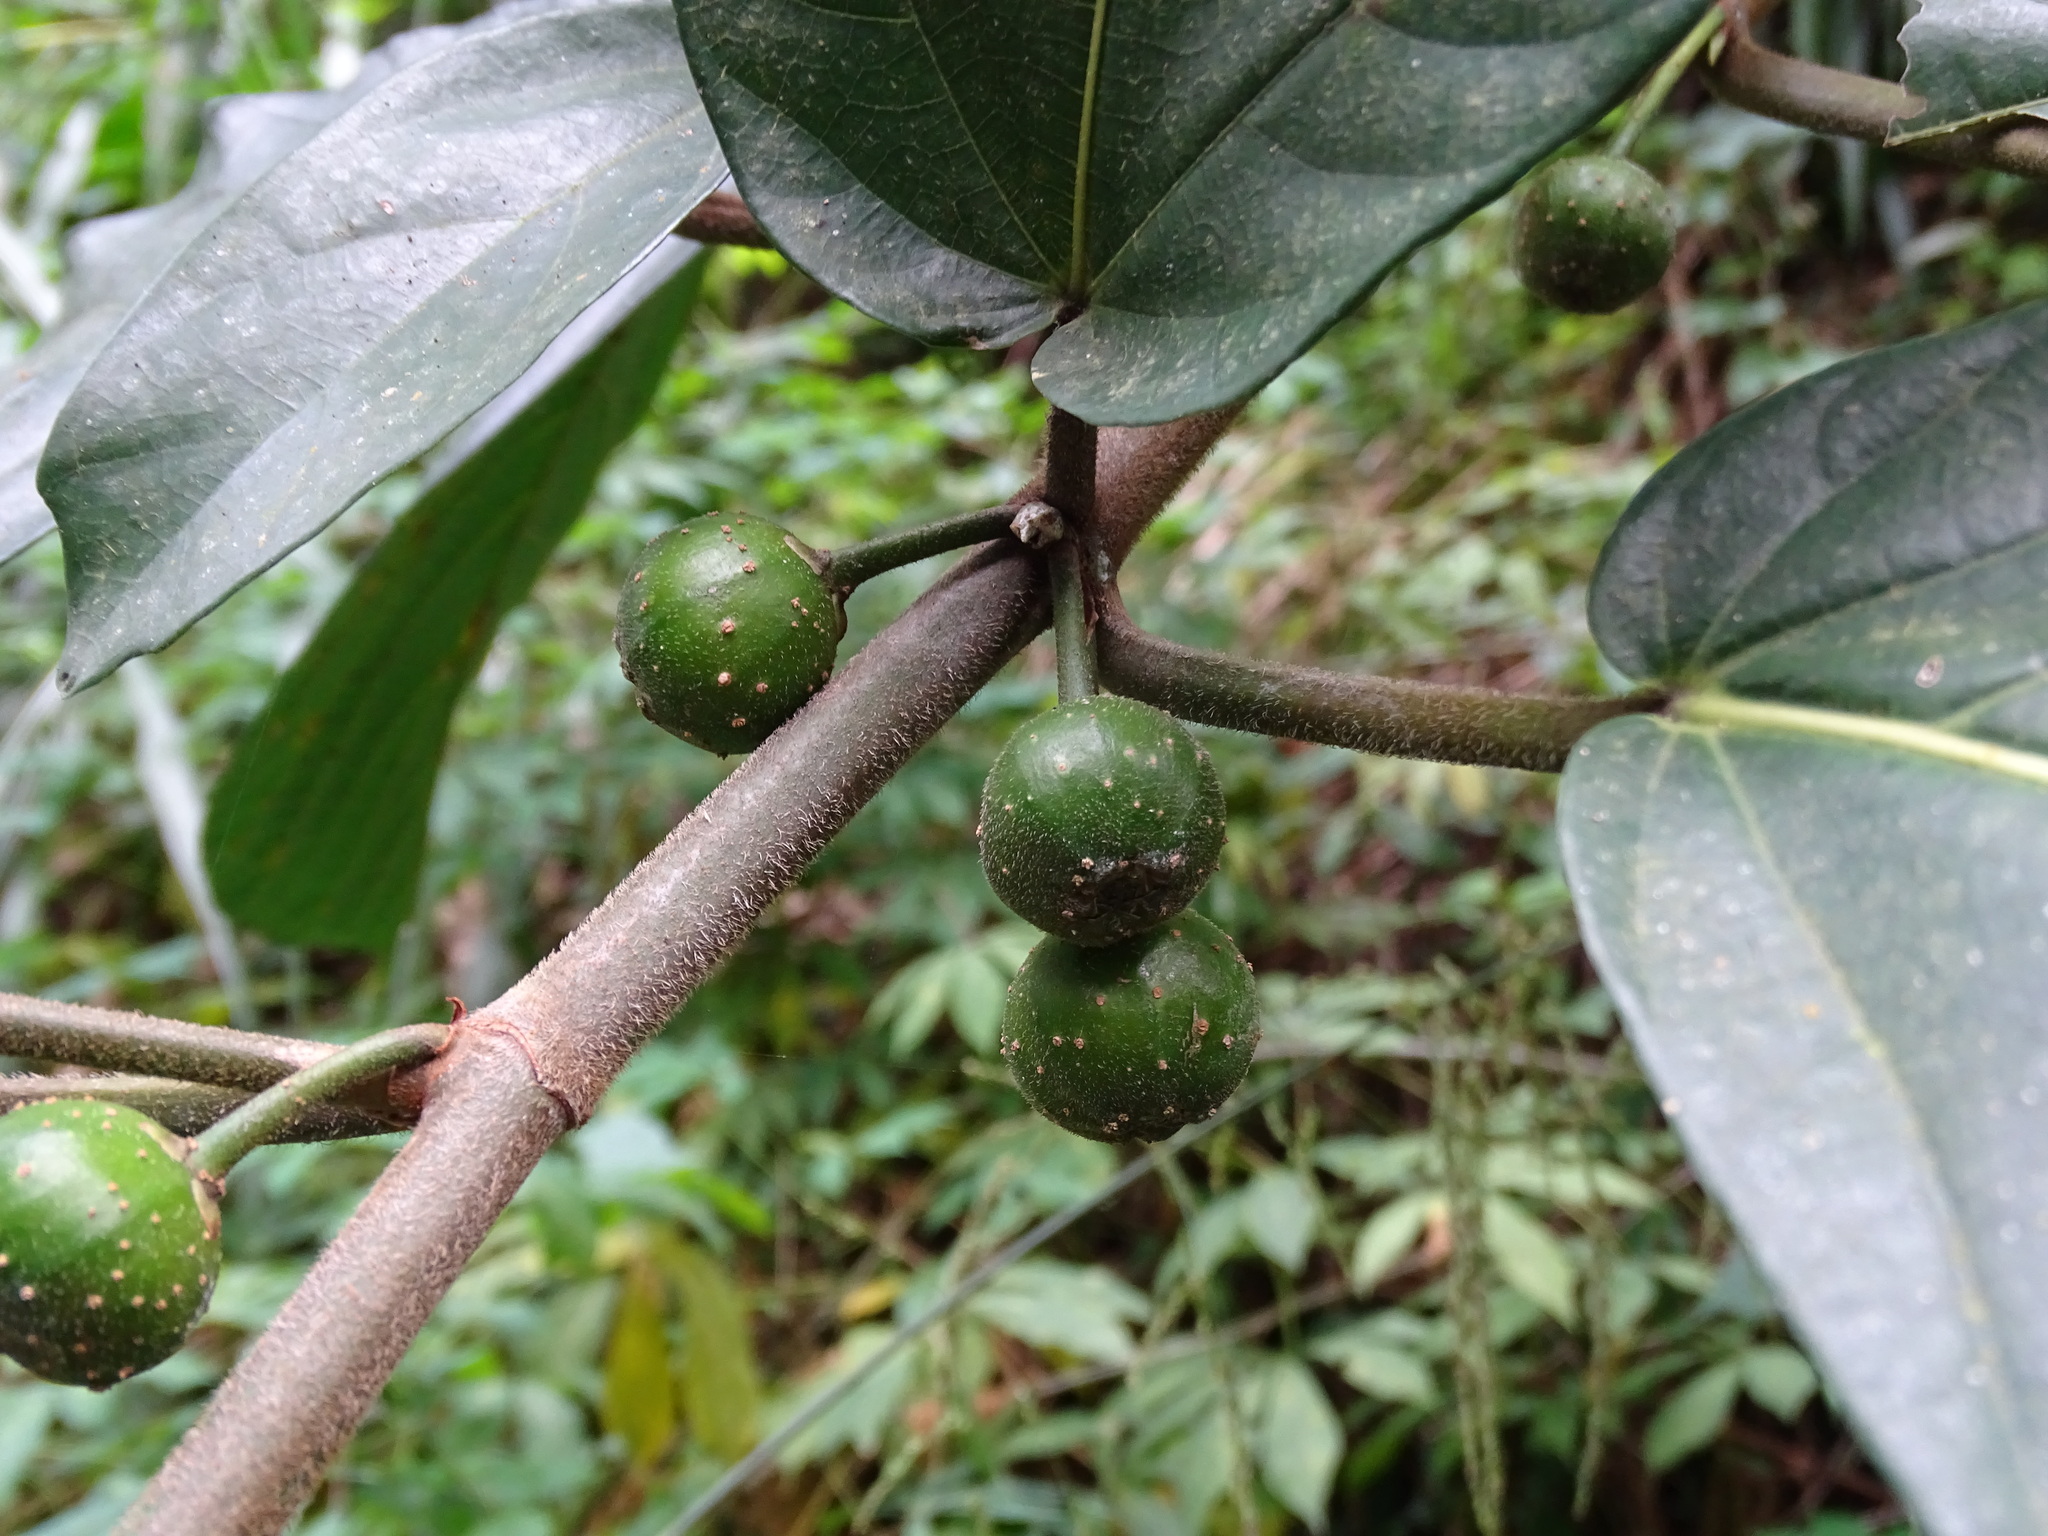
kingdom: Plantae
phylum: Tracheophyta
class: Magnoliopsida
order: Rosales
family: Moraceae
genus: Ficus
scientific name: Ficus benguetensis
